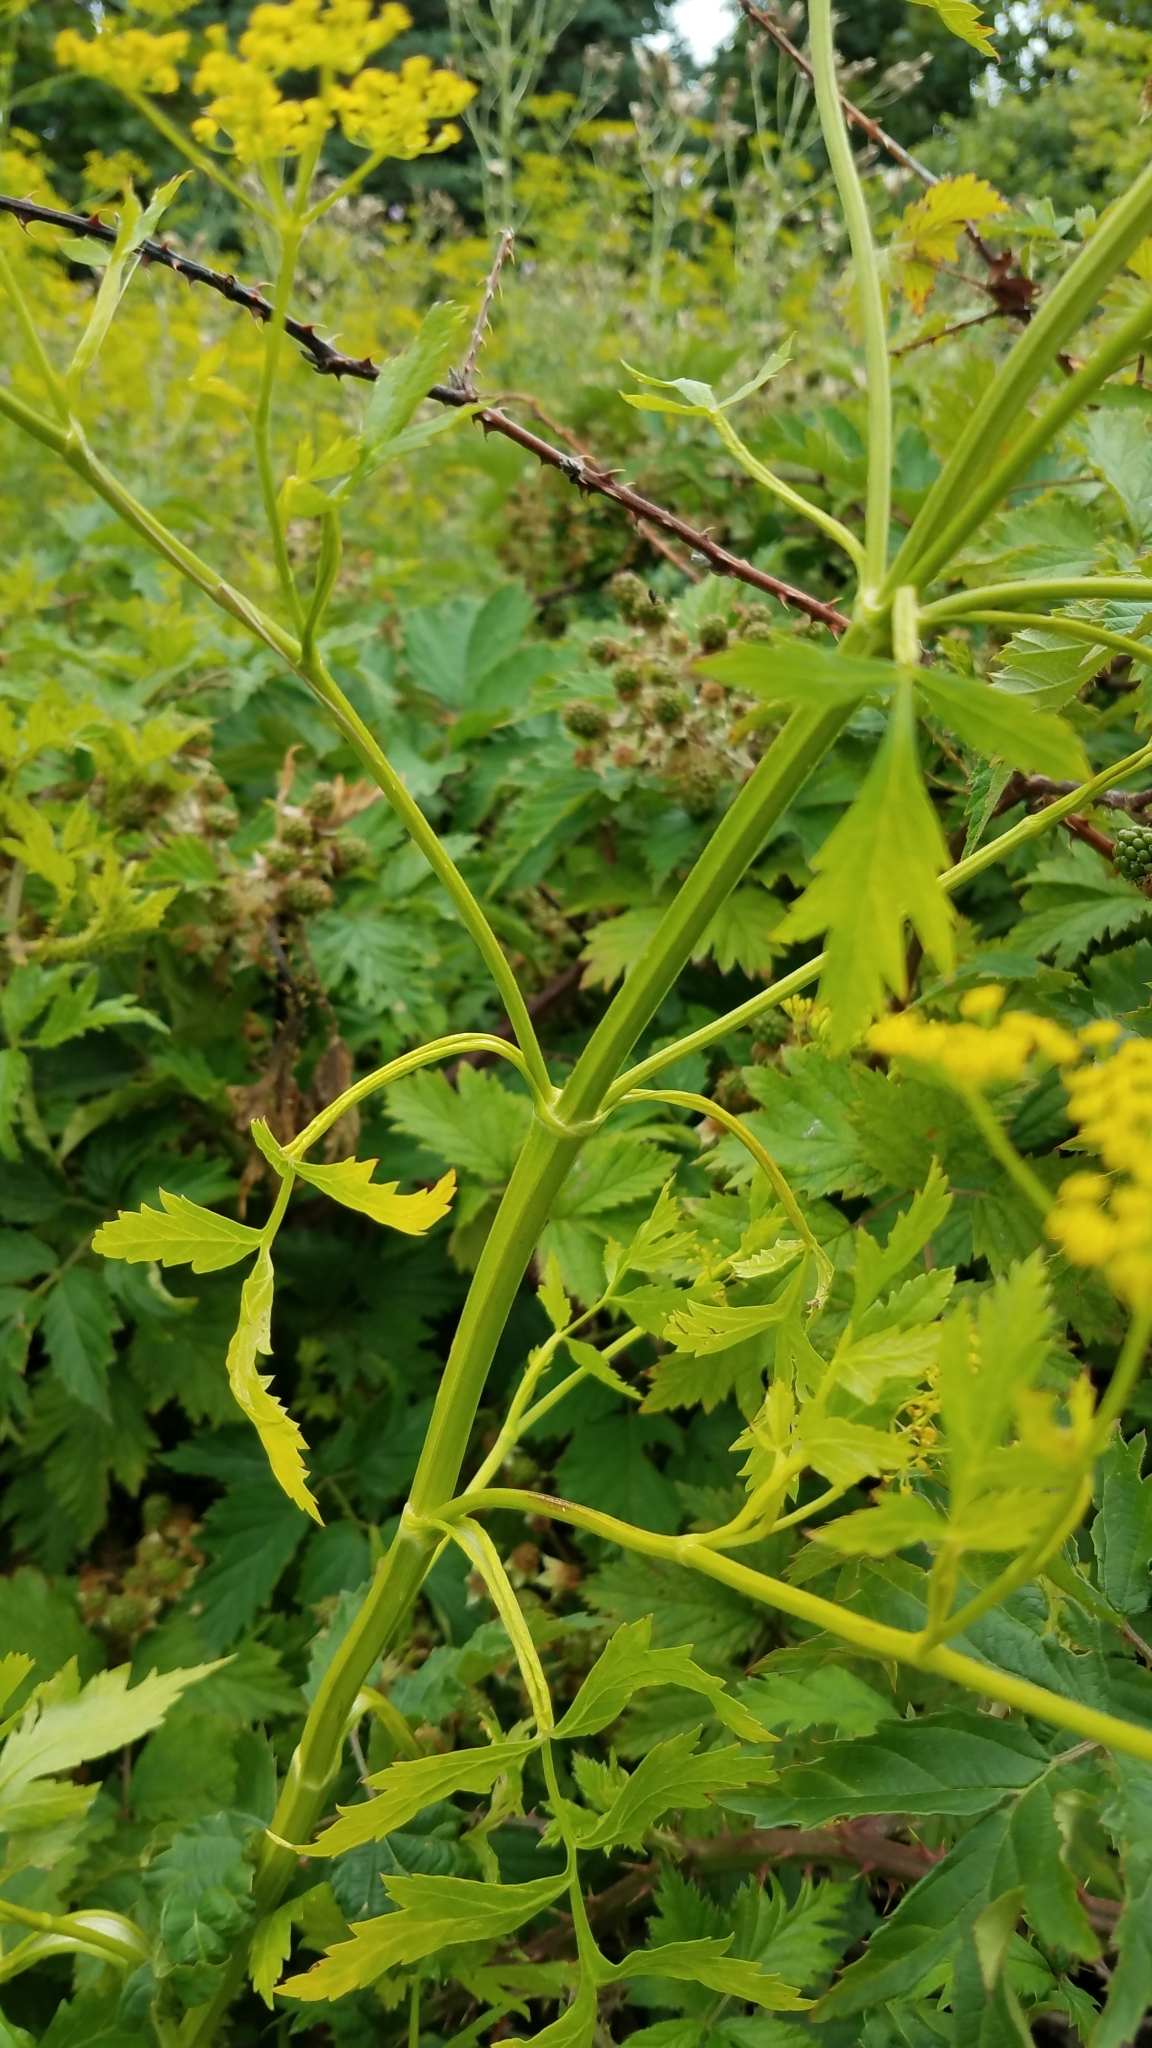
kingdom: Plantae
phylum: Tracheophyta
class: Magnoliopsida
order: Apiales
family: Apiaceae
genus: Pastinaca
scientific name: Pastinaca sativa
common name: Wild parsnip
